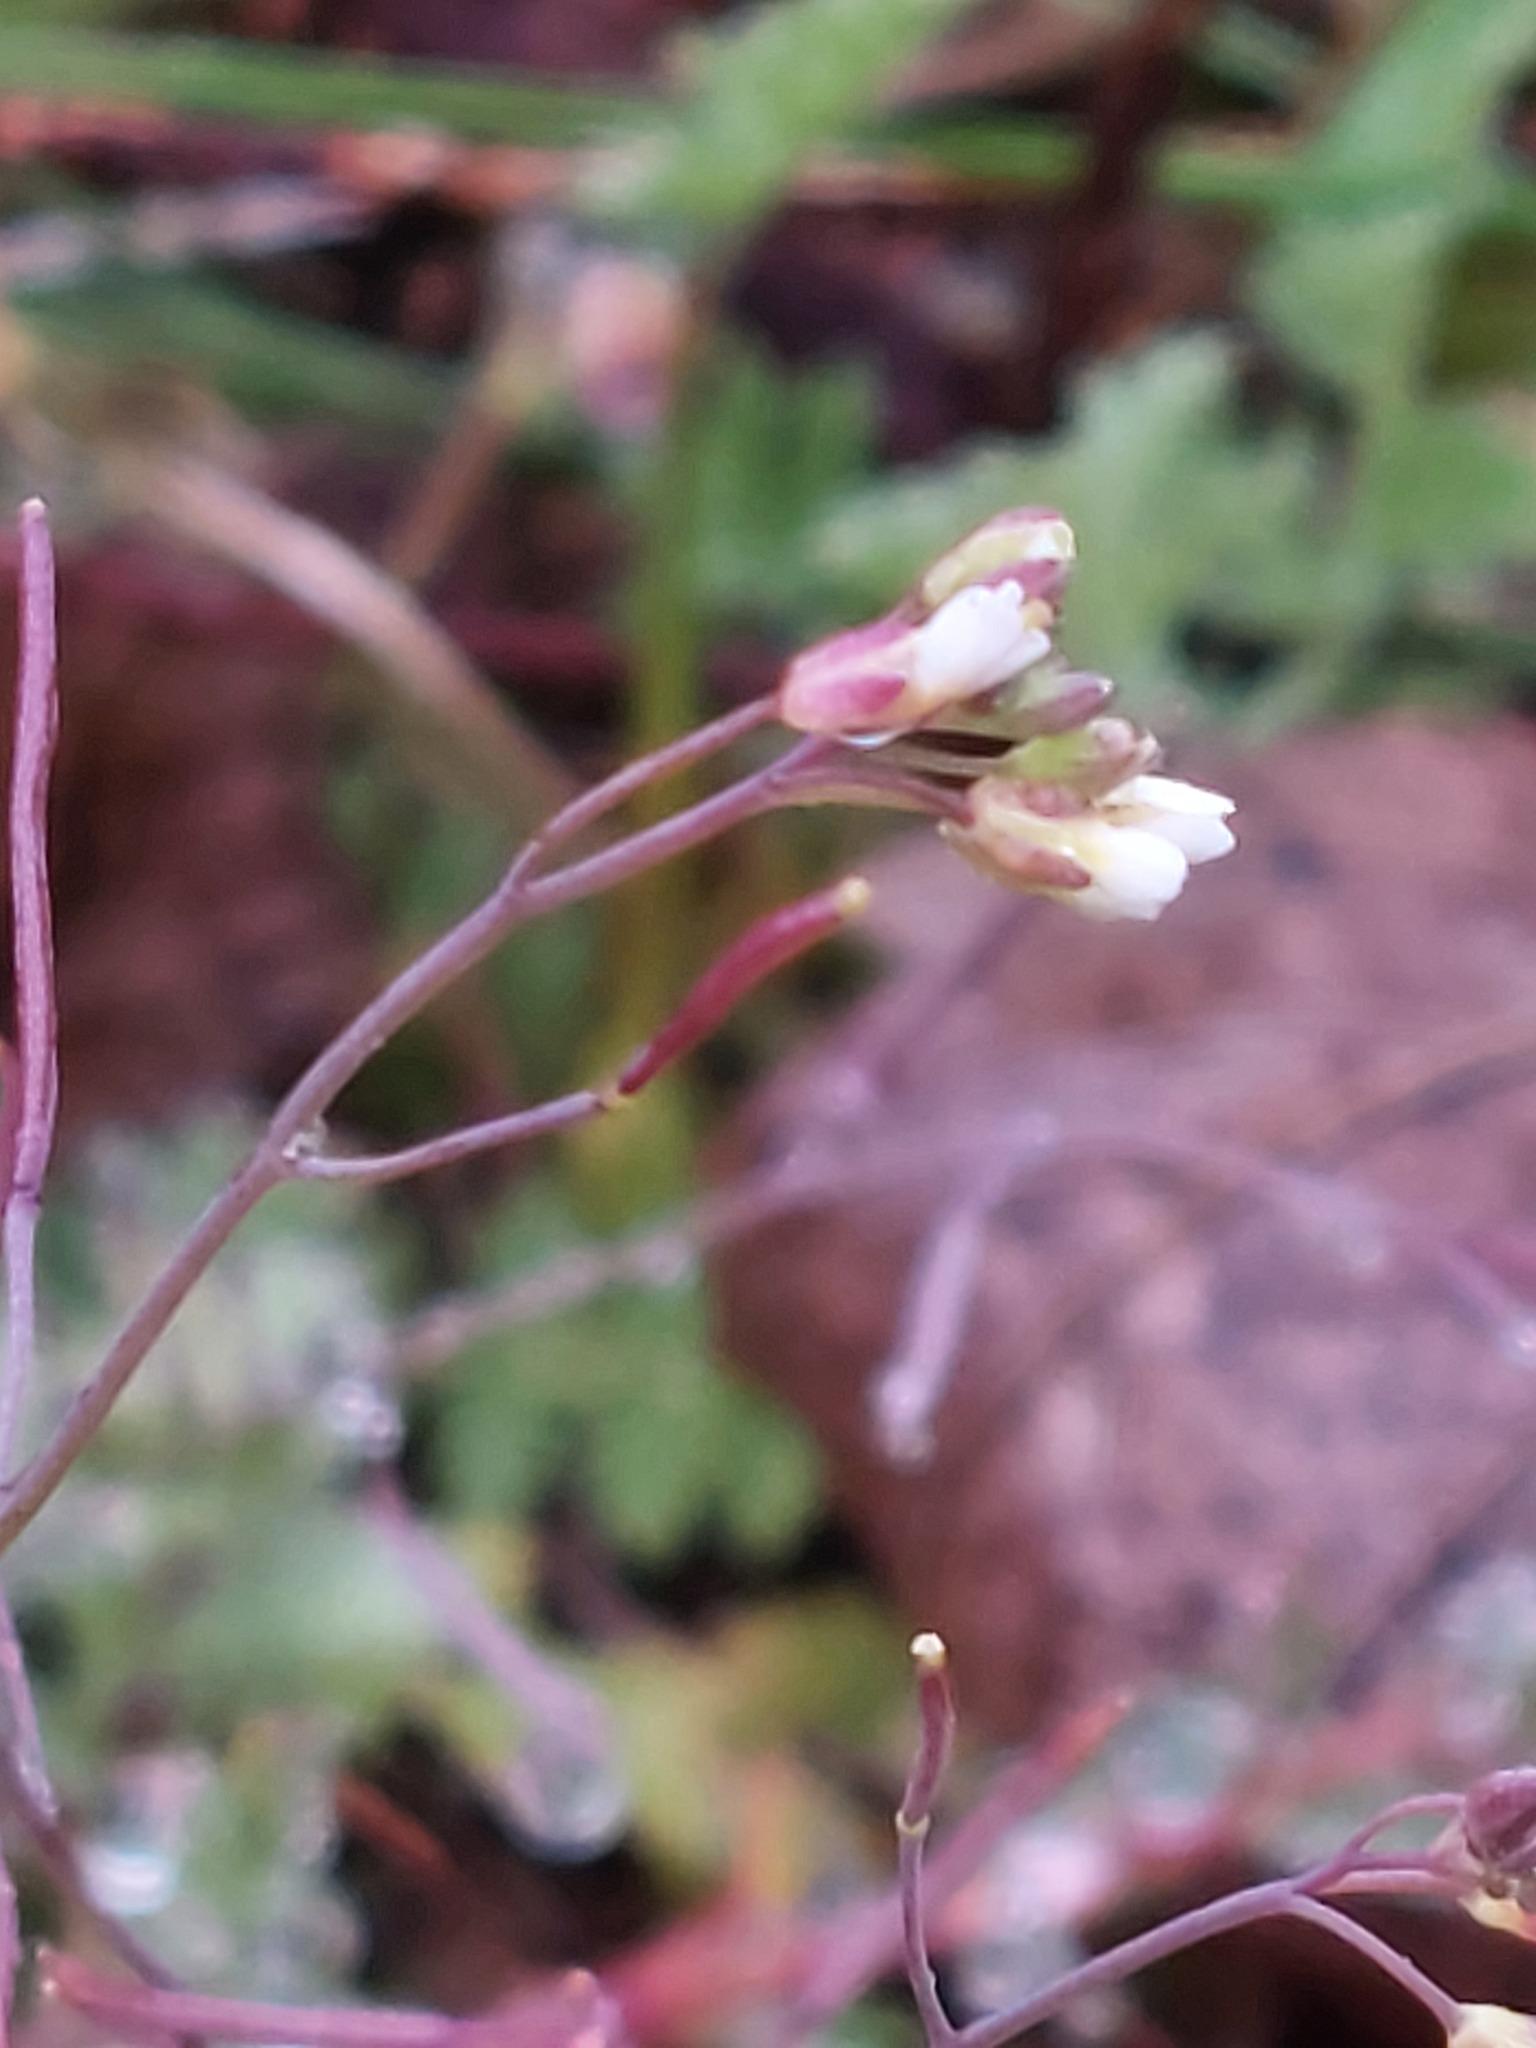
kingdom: Plantae
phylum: Tracheophyta
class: Magnoliopsida
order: Brassicales
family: Brassicaceae
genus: Arabidopsis
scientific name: Arabidopsis thaliana
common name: Thale cress
